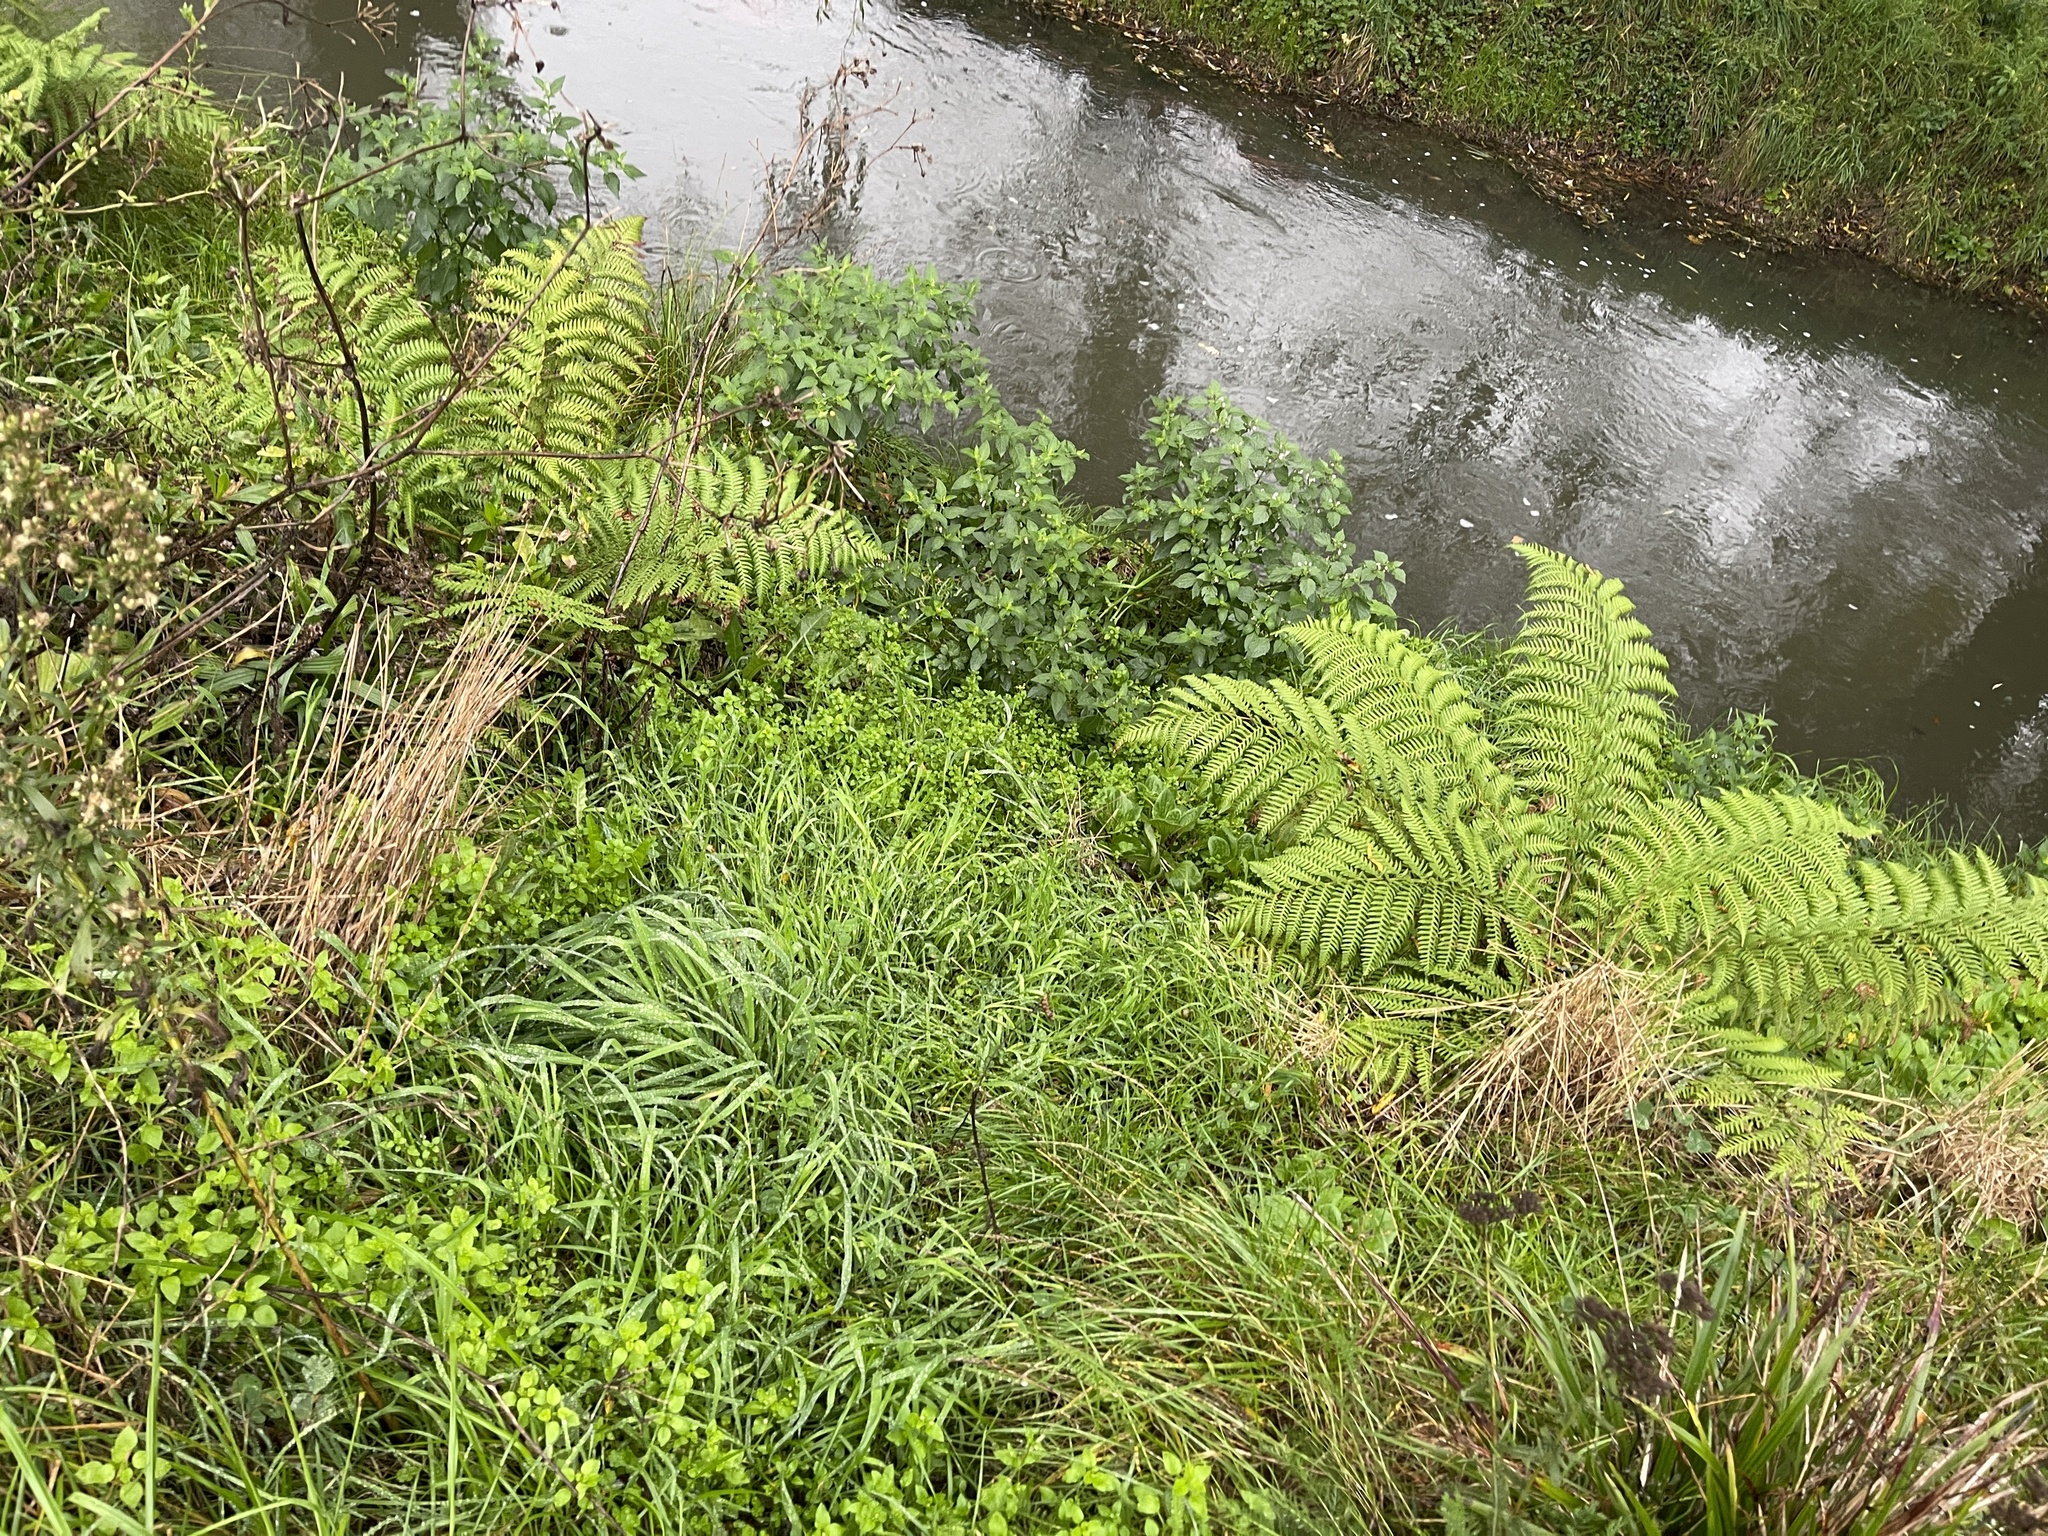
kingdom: Plantae
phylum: Tracheophyta
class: Polypodiopsida
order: Cyatheales
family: Dicksoniaceae
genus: Dicksonia
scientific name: Dicksonia fibrosa
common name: Golden tree fern
